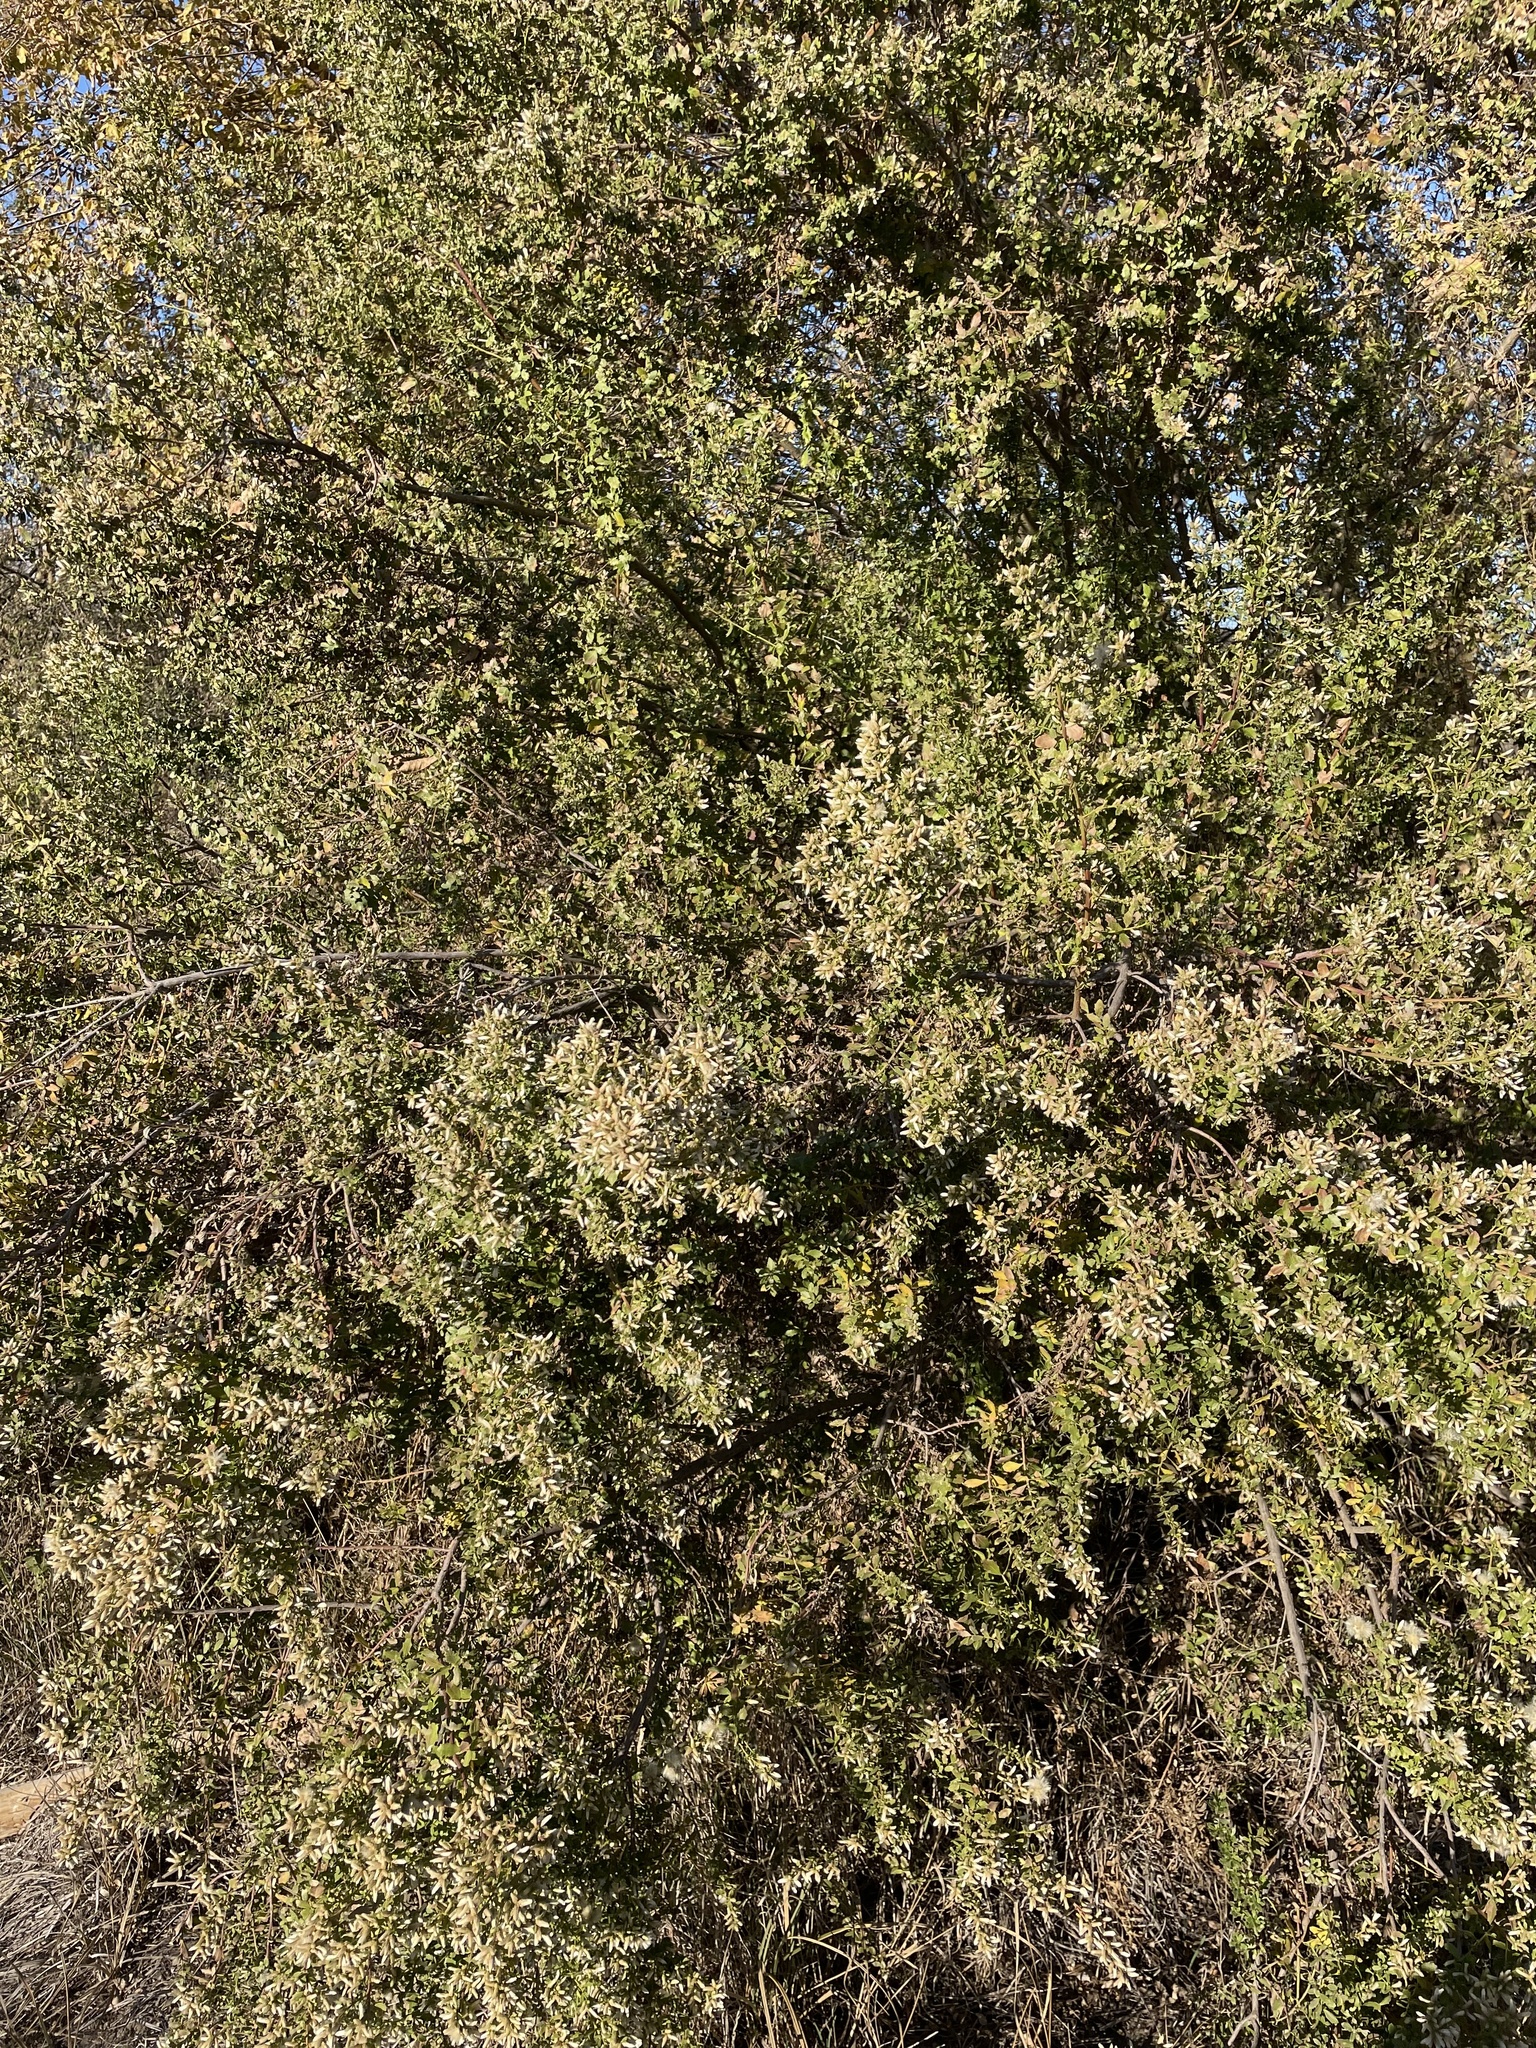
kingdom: Plantae
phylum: Tracheophyta
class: Magnoliopsida
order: Asterales
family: Asteraceae
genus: Baccharis
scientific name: Baccharis pilularis
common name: Coyotebrush
